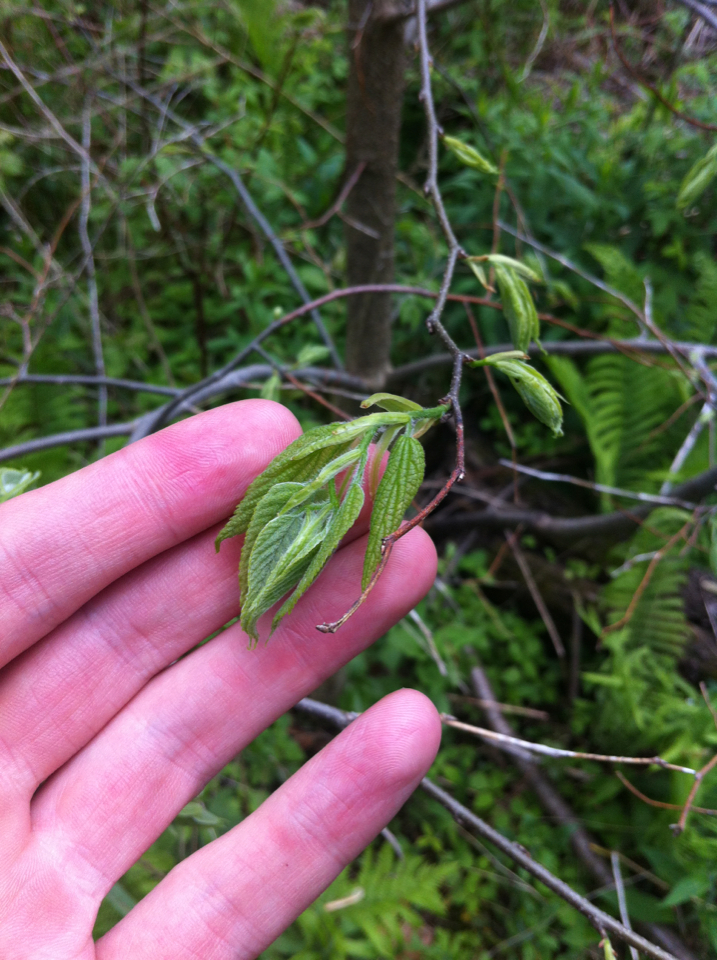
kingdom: Plantae
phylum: Tracheophyta
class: Magnoliopsida
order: Rosales
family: Cannabaceae
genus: Celtis
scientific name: Celtis occidentalis
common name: Common hackberry
